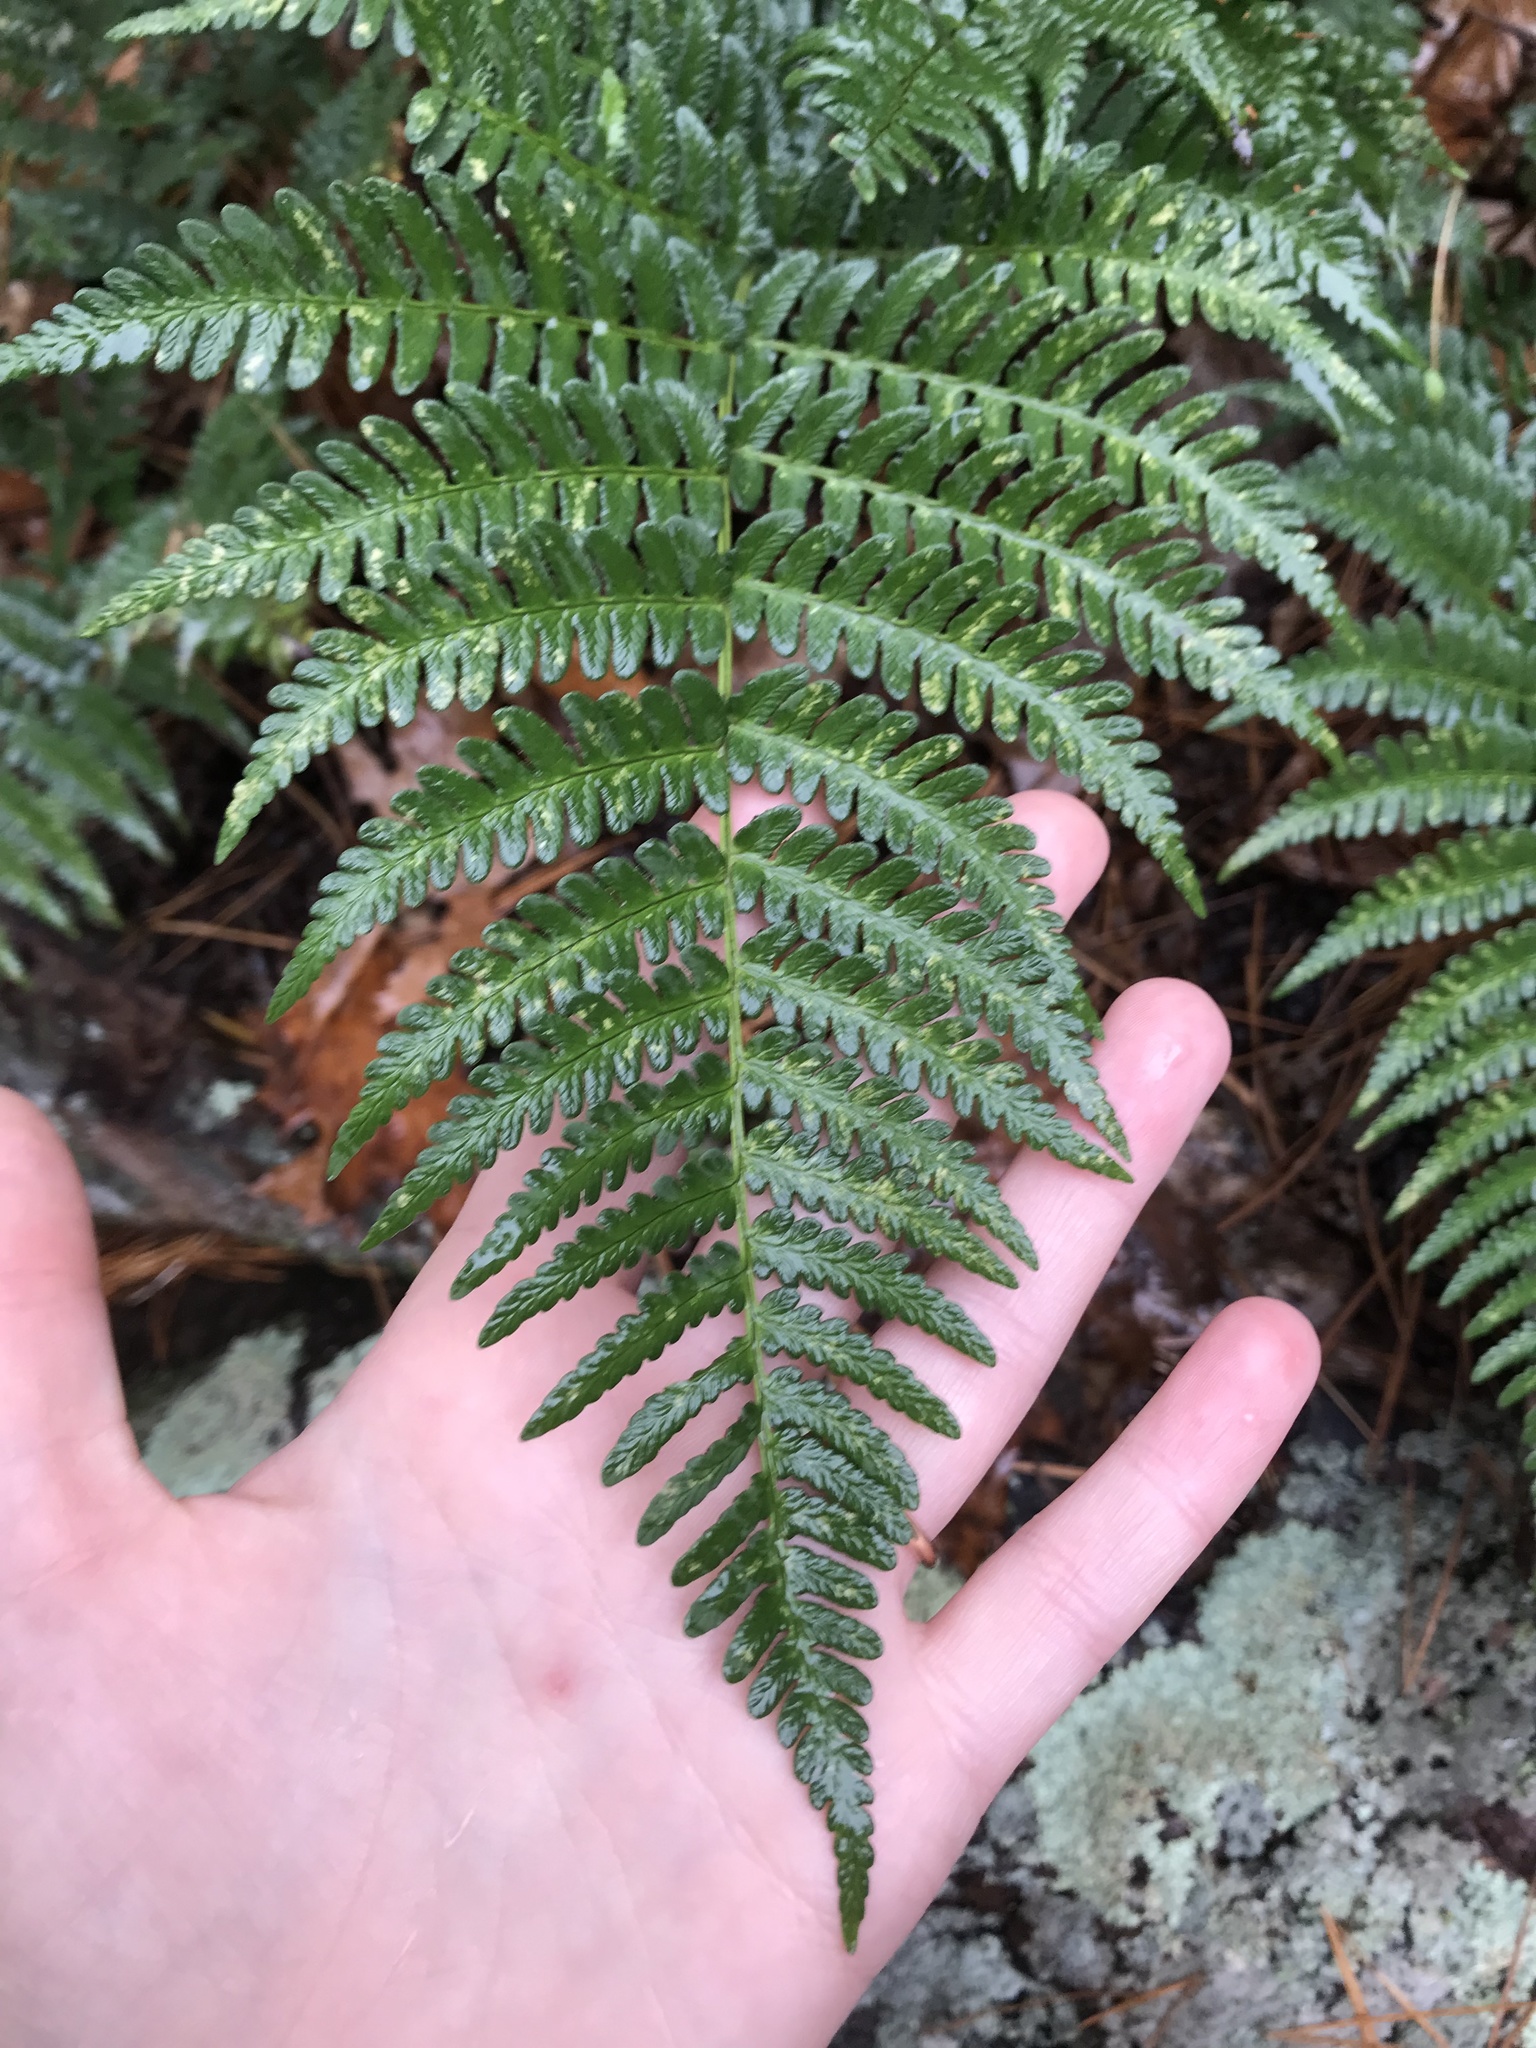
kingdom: Plantae
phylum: Tracheophyta
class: Polypodiopsida
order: Polypodiales
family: Dryopteridaceae
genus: Dryopteris
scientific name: Dryopteris marginalis
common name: Marginal wood fern
